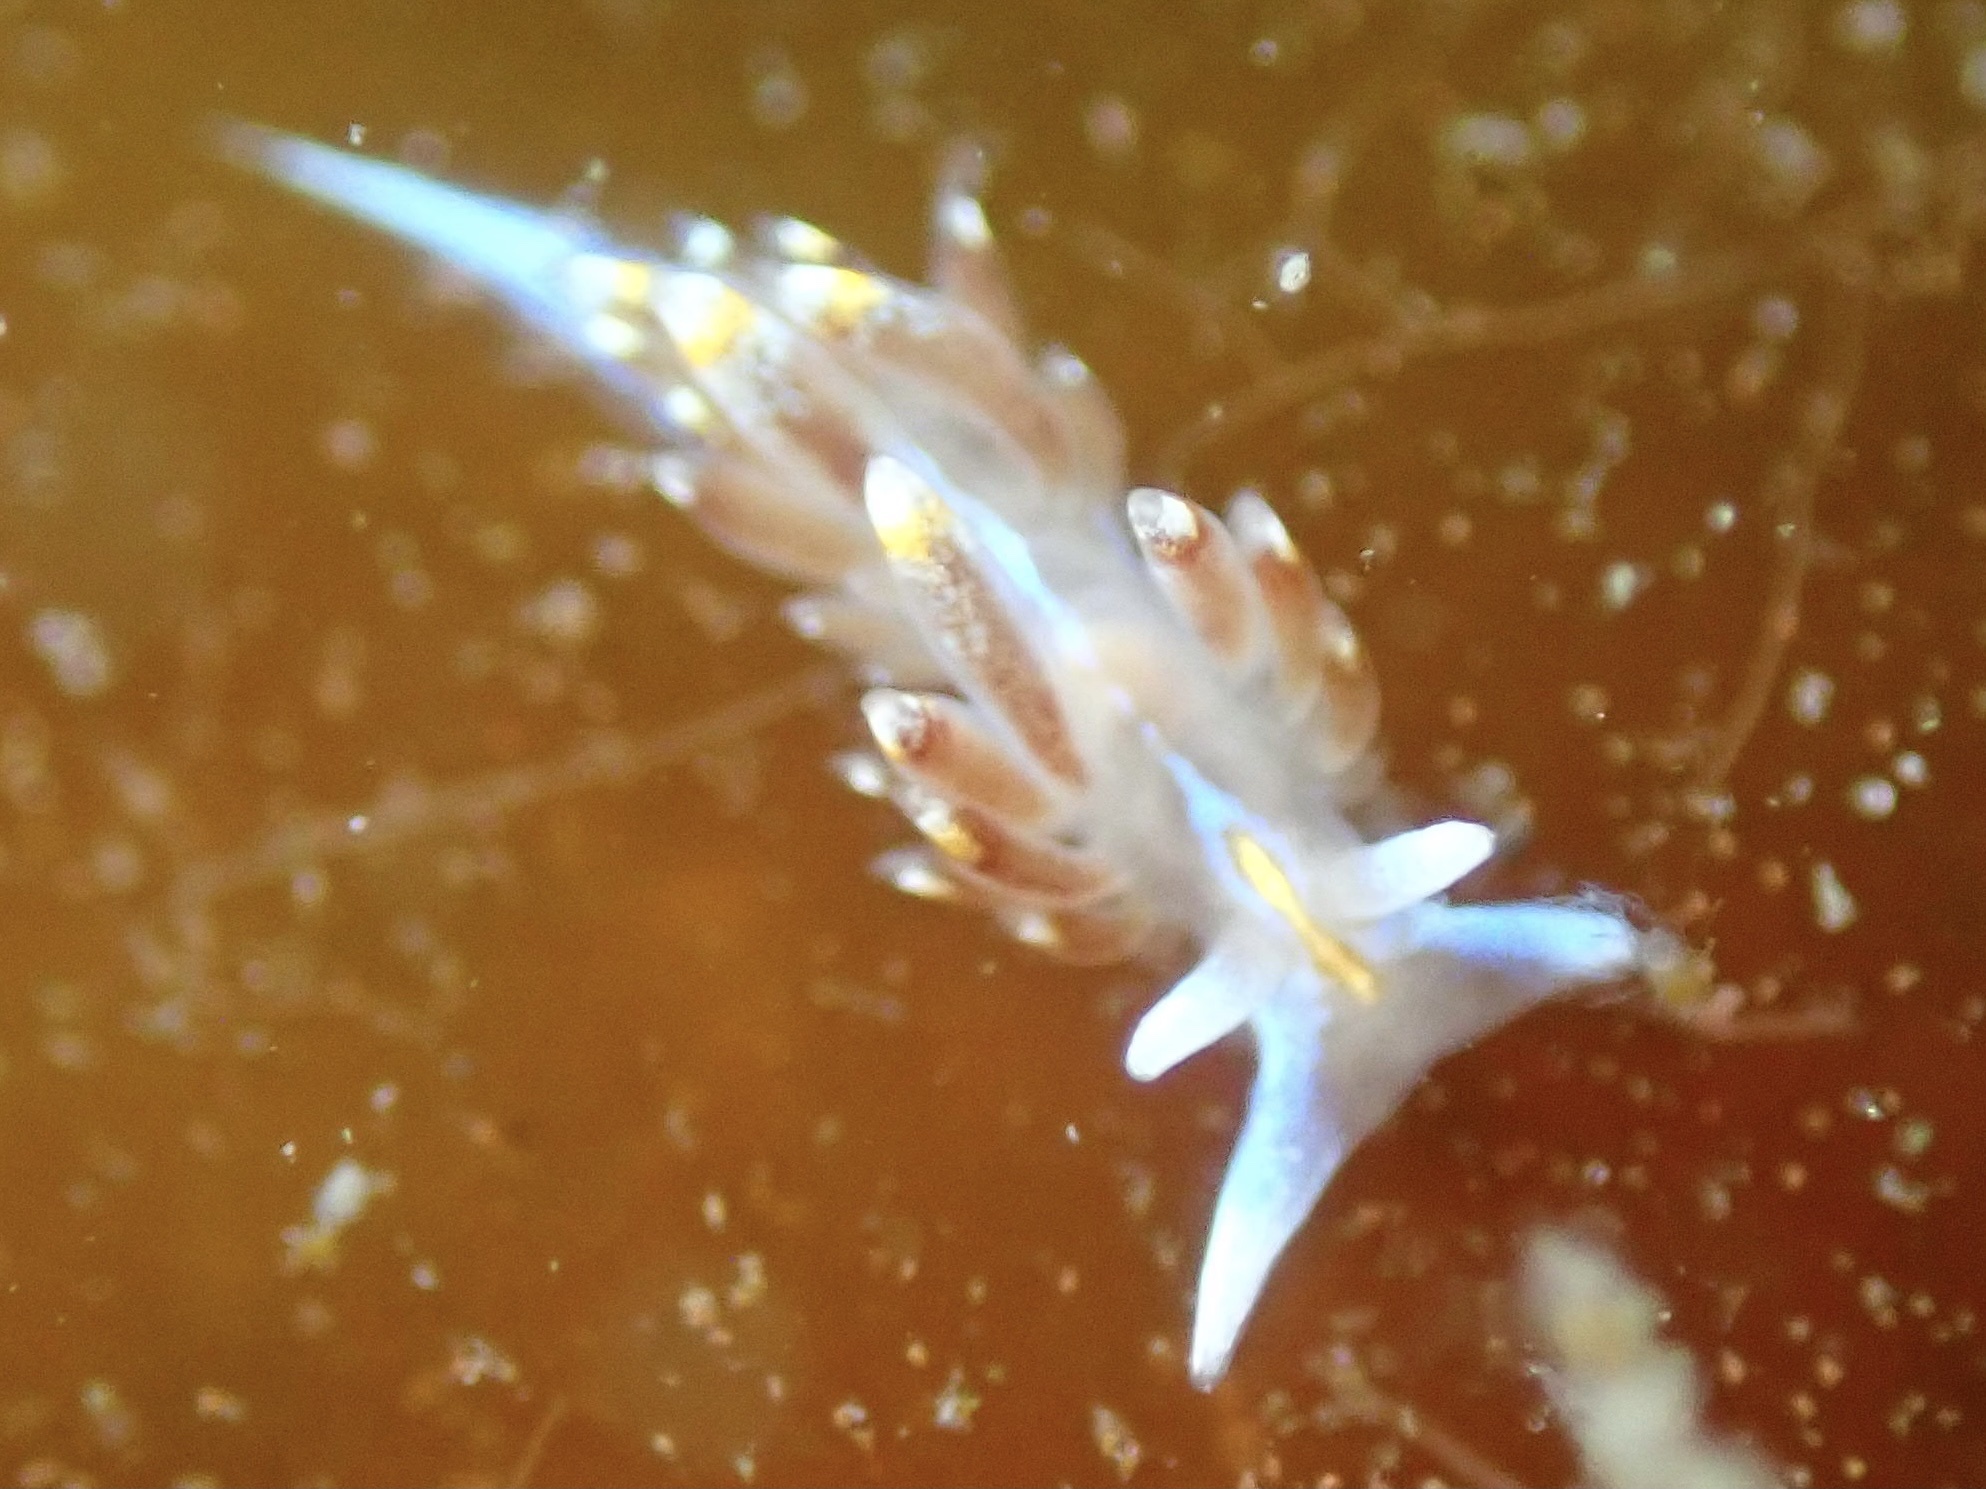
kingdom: Animalia
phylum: Mollusca
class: Gastropoda
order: Nudibranchia
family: Myrrhinidae
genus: Hermissenda
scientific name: Hermissenda opalescens
